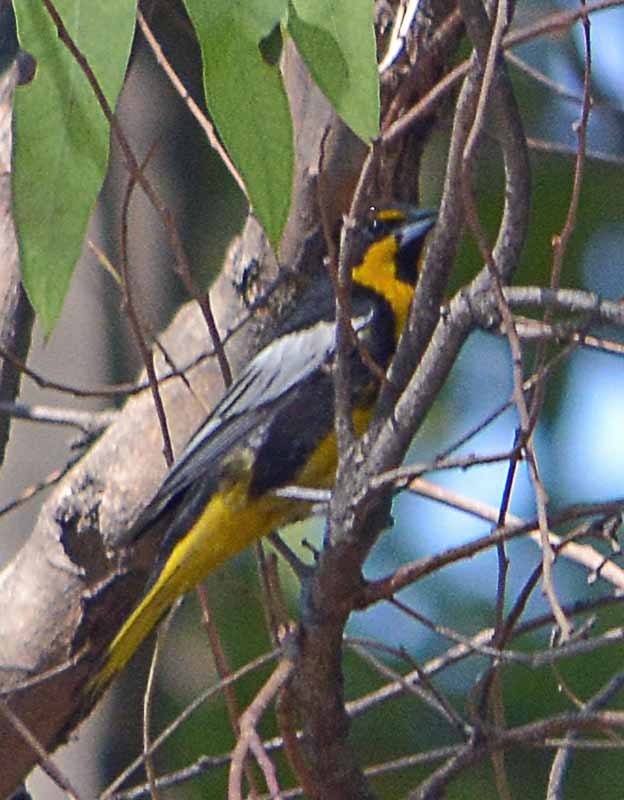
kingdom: Animalia
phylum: Chordata
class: Aves
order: Passeriformes
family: Icteridae
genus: Icterus
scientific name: Icterus abeillei
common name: Black-backed oriole
